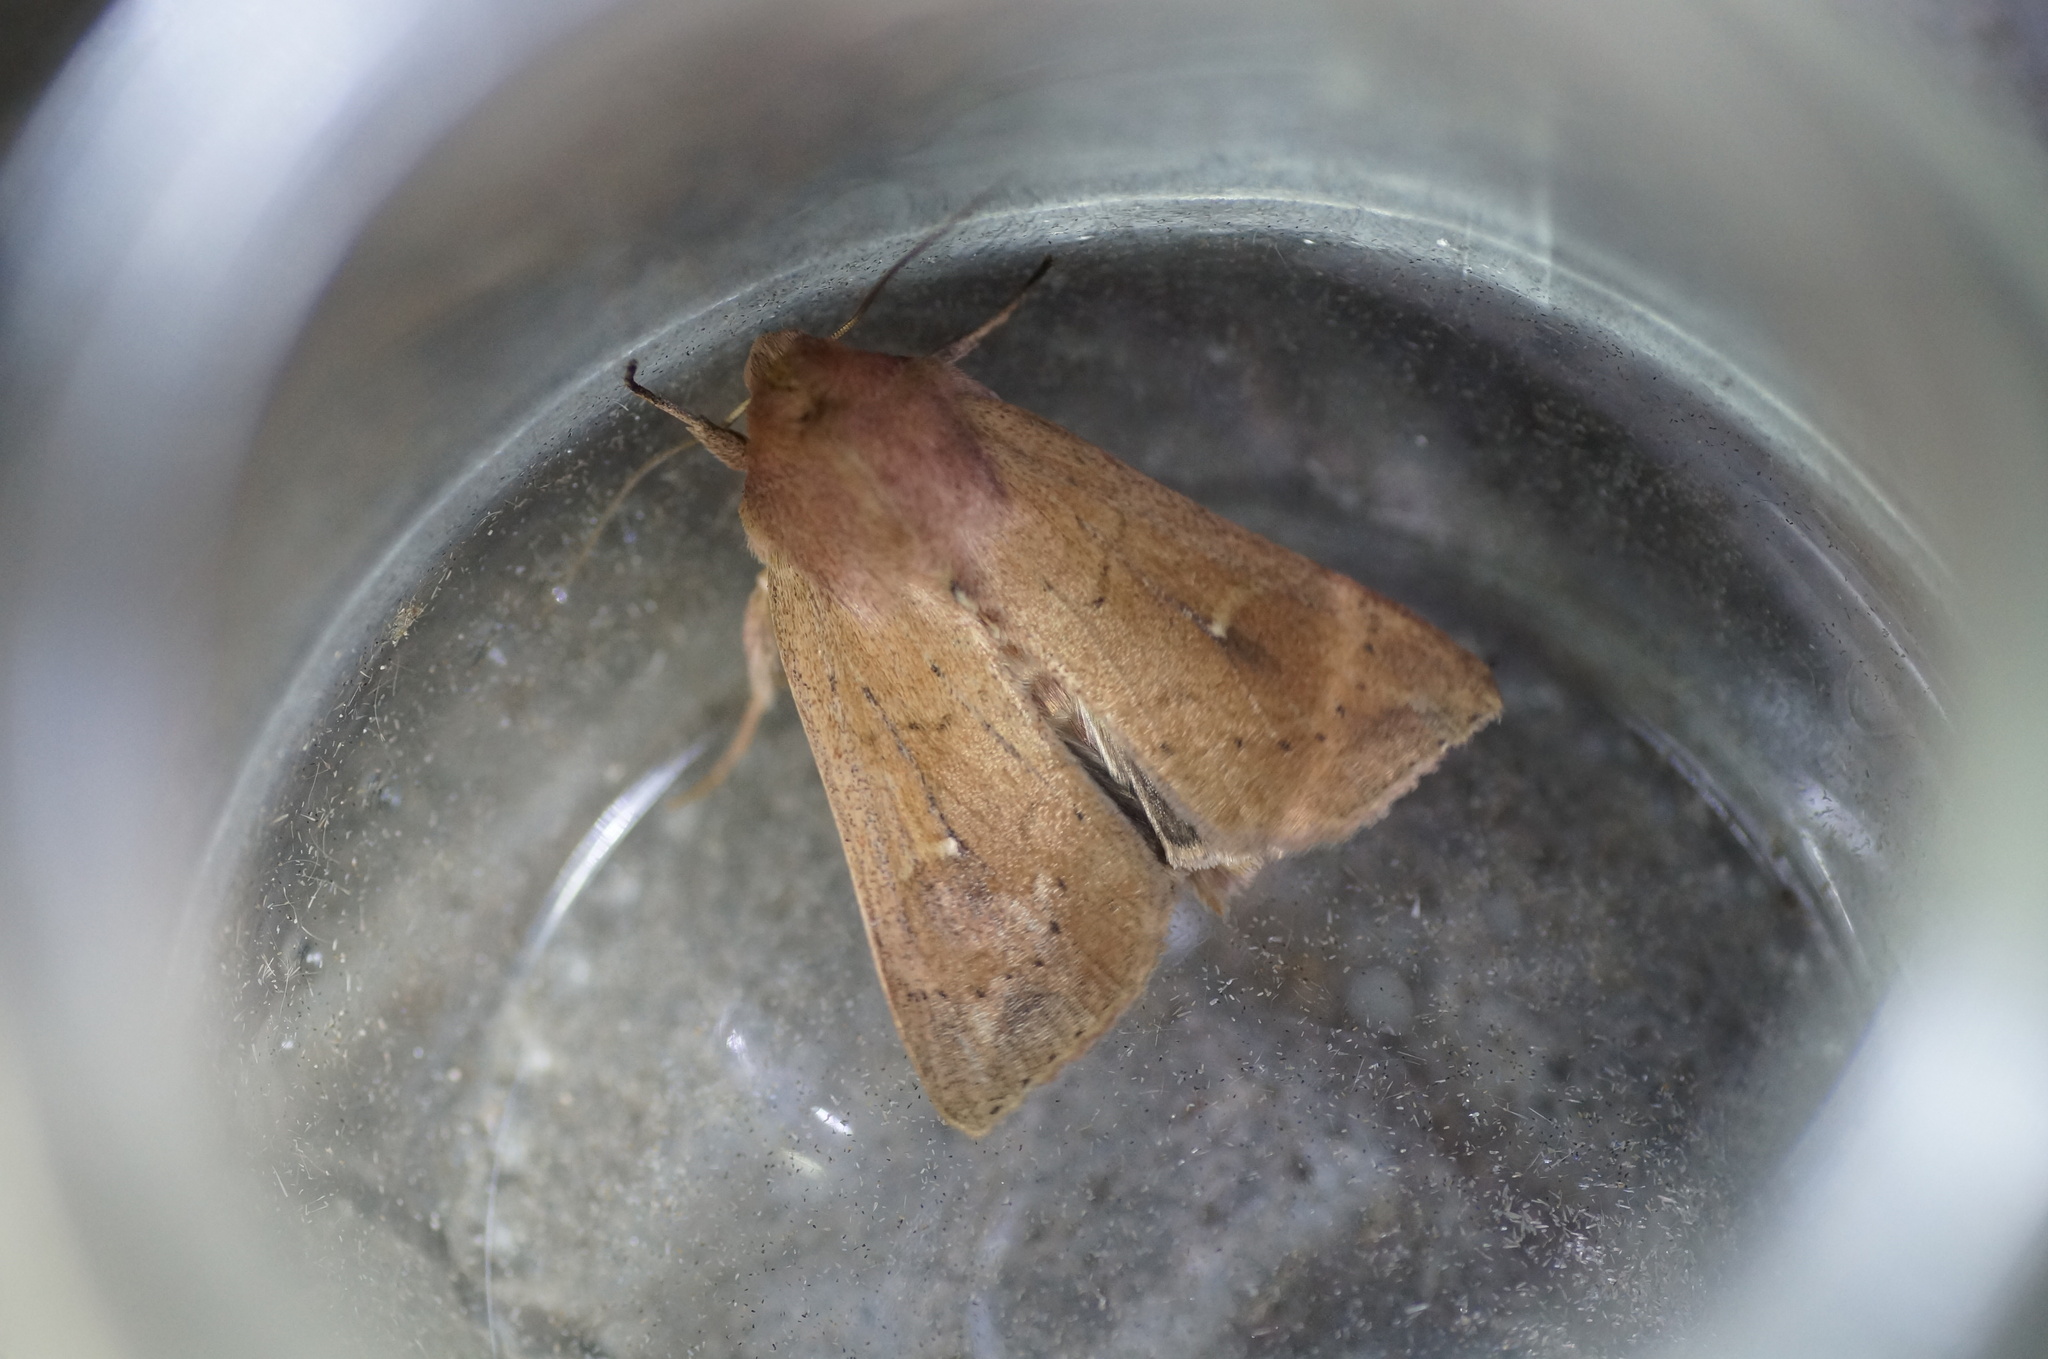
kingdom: Animalia
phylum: Arthropoda
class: Insecta
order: Lepidoptera
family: Noctuidae
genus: Mythimna
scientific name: Mythimna ferrago
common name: Clay
